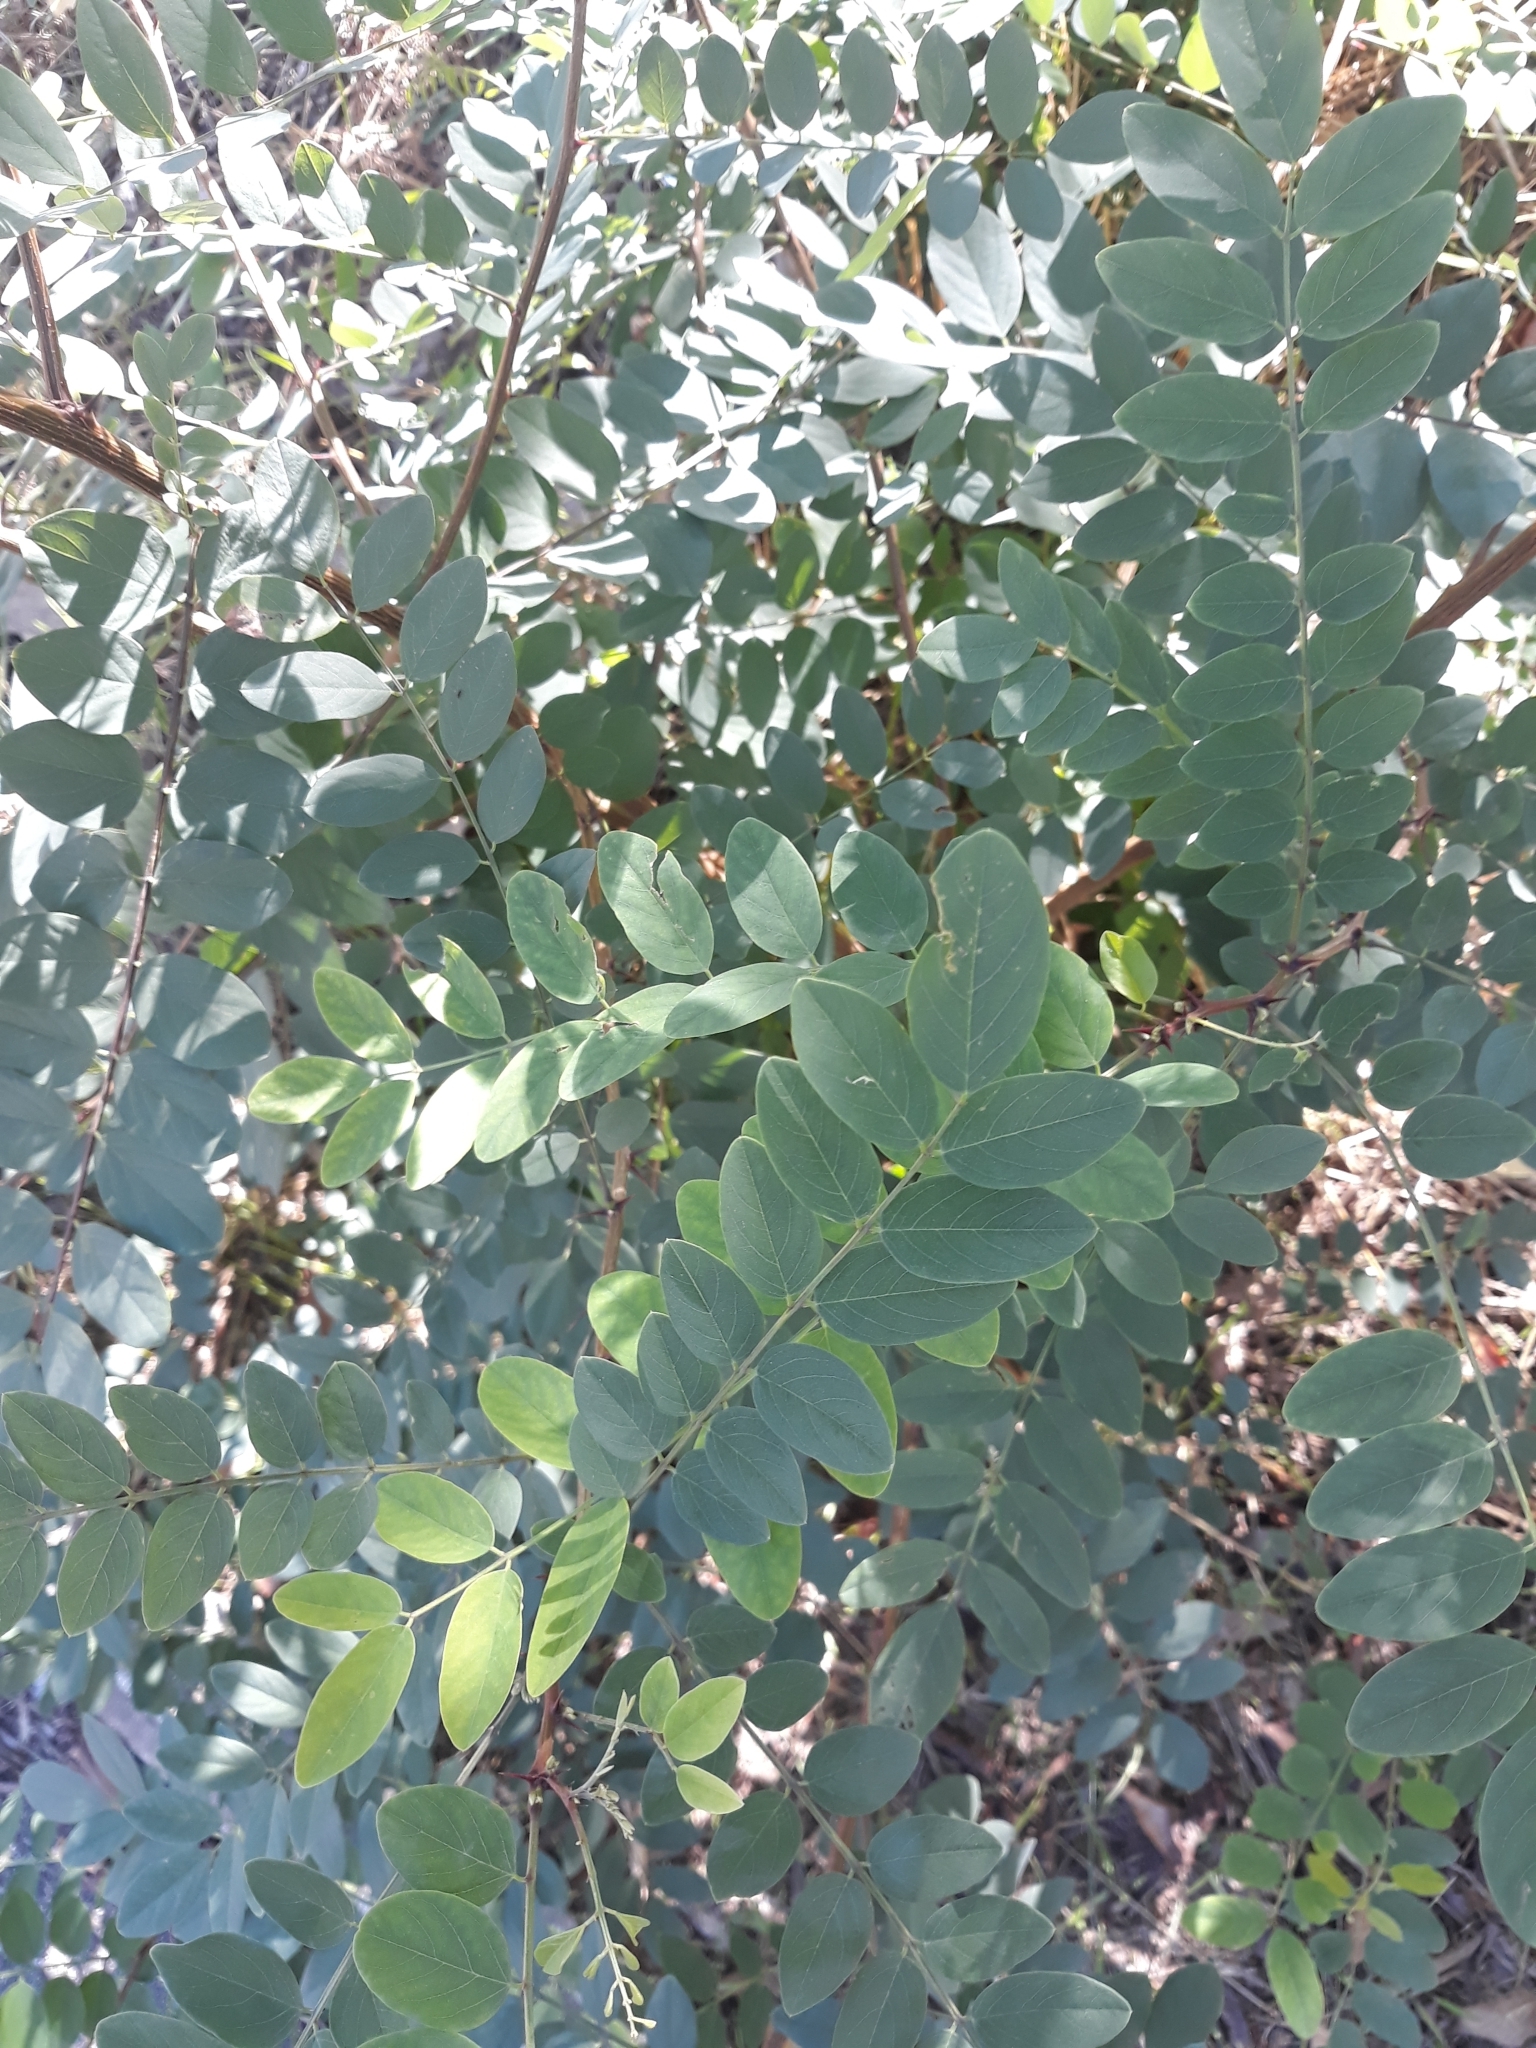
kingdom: Plantae
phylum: Tracheophyta
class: Magnoliopsida
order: Fabales
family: Fabaceae
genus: Robinia
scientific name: Robinia pseudoacacia
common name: Black locust
